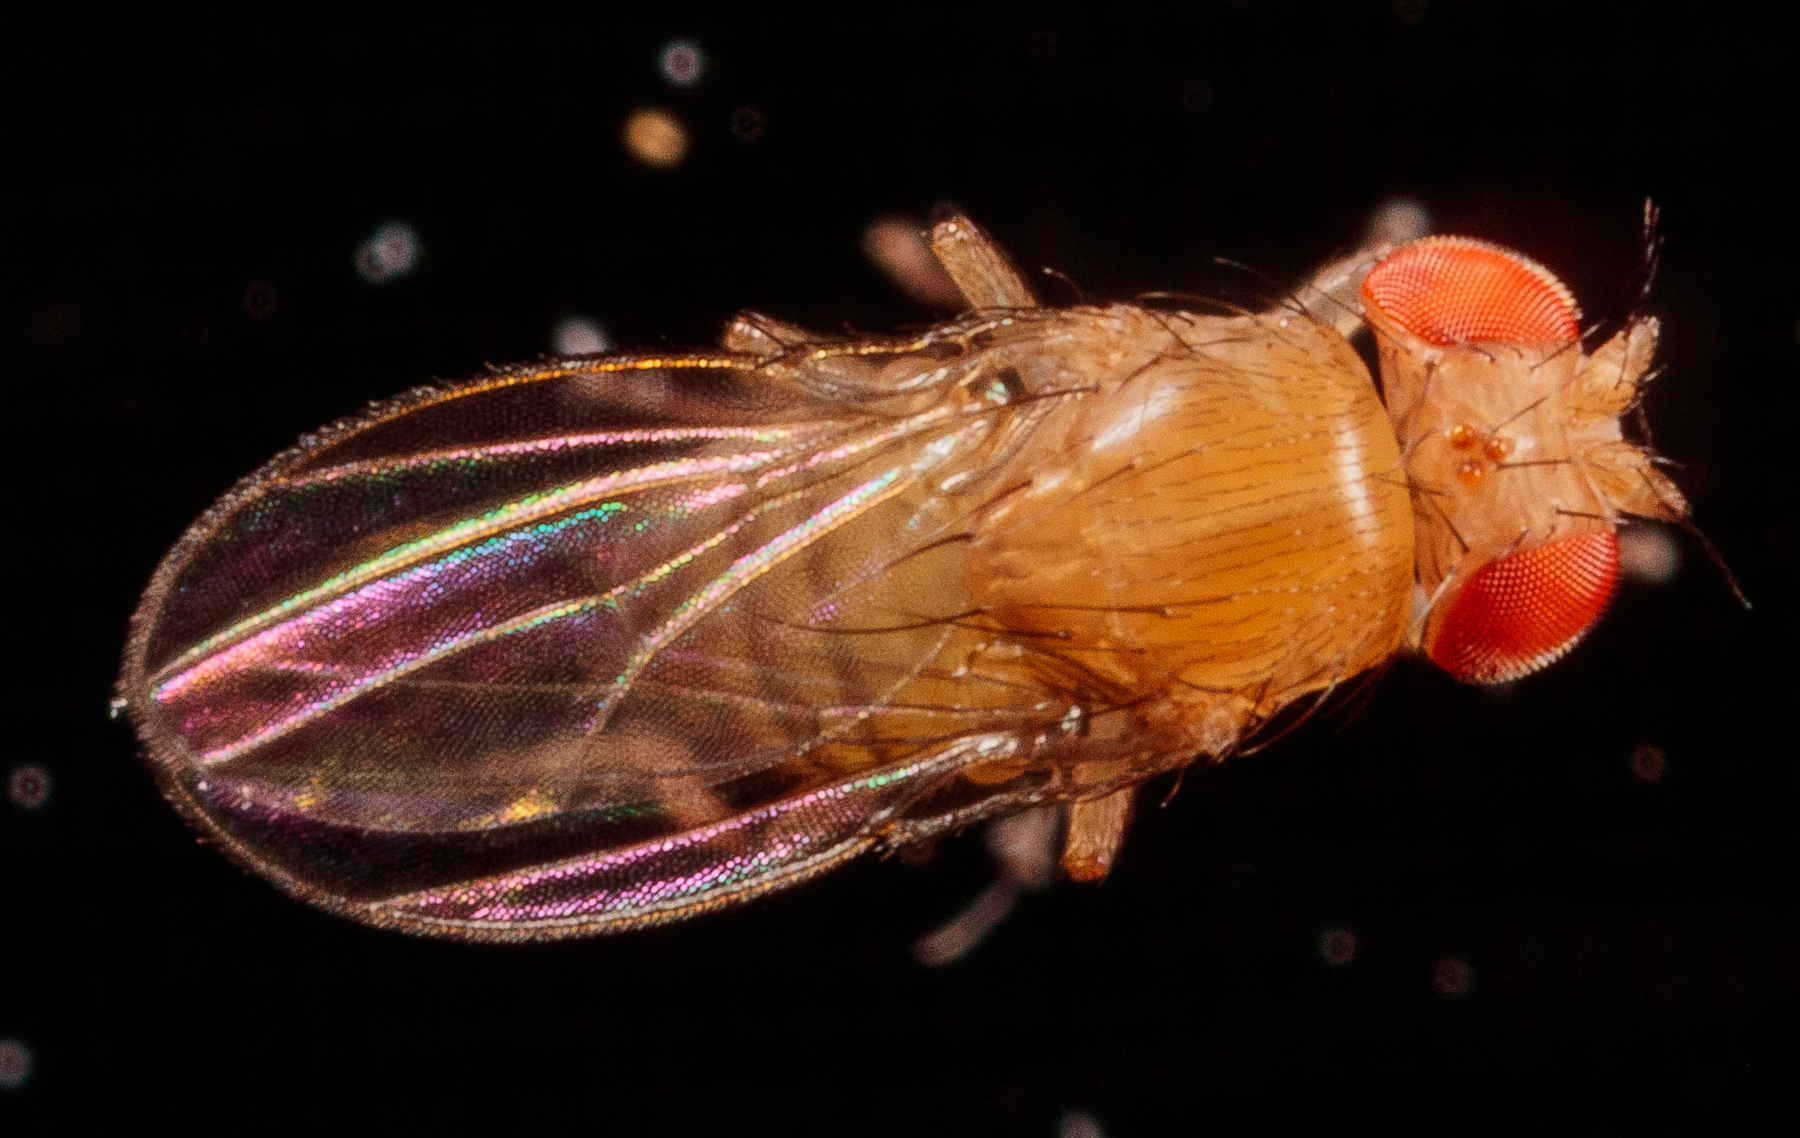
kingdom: Animalia
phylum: Arthropoda
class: Insecta
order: Diptera
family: Drosophilidae
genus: Drosophila
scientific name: Drosophila
